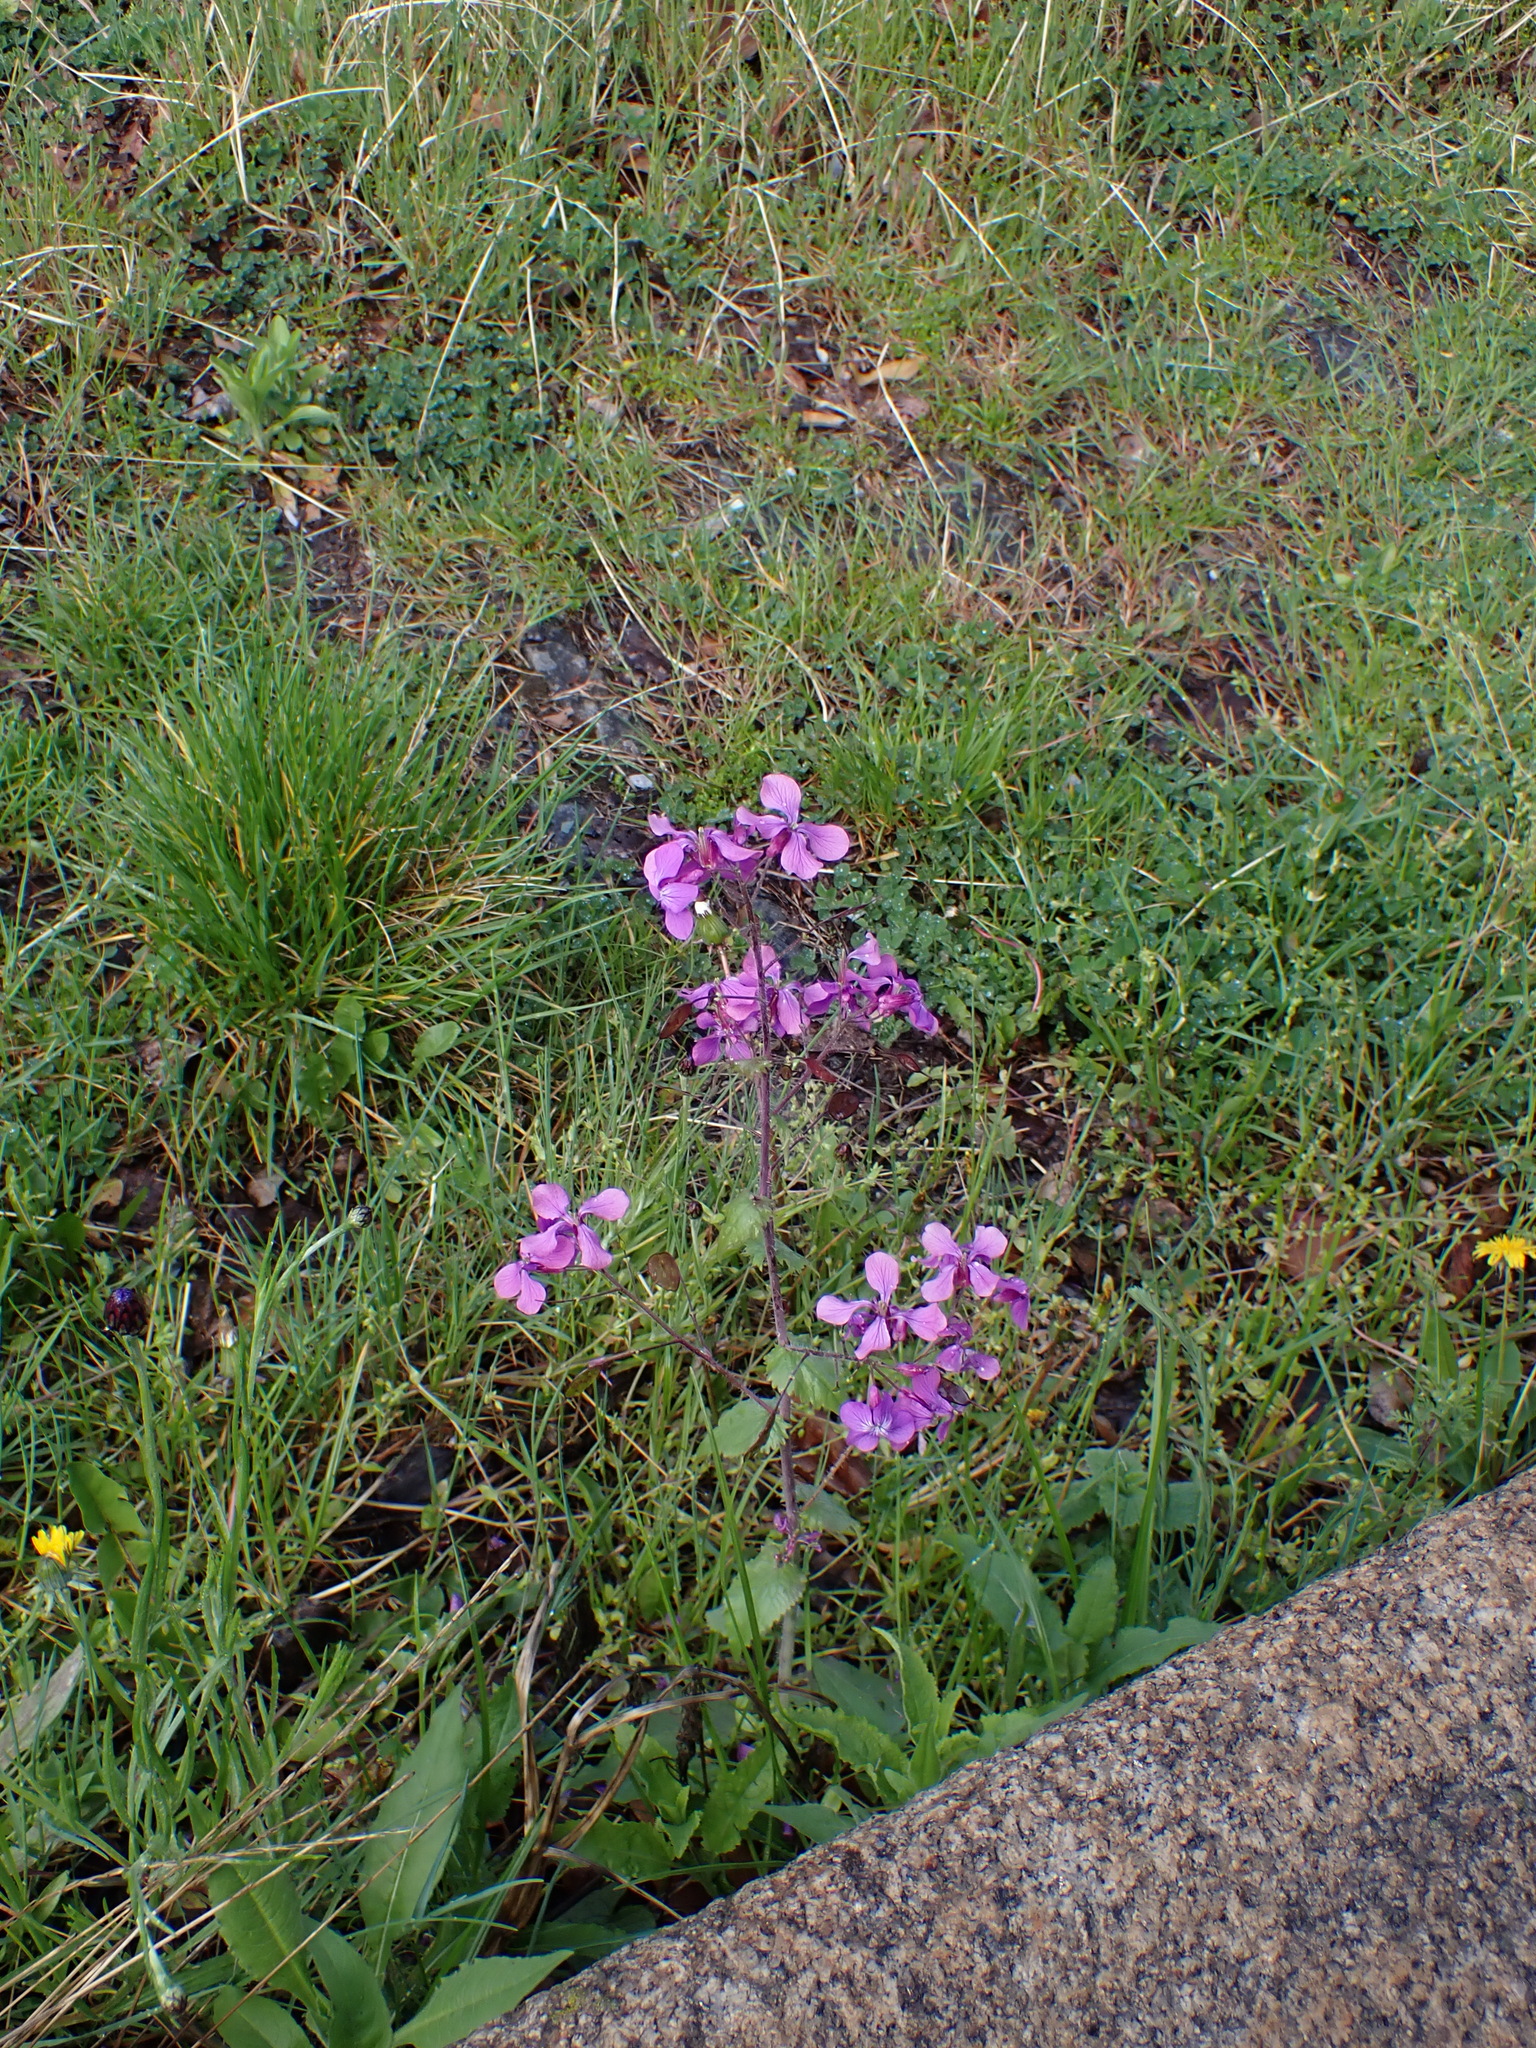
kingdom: Plantae
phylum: Tracheophyta
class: Magnoliopsida
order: Brassicales
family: Brassicaceae
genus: Lunaria
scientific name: Lunaria annua
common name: Honesty
